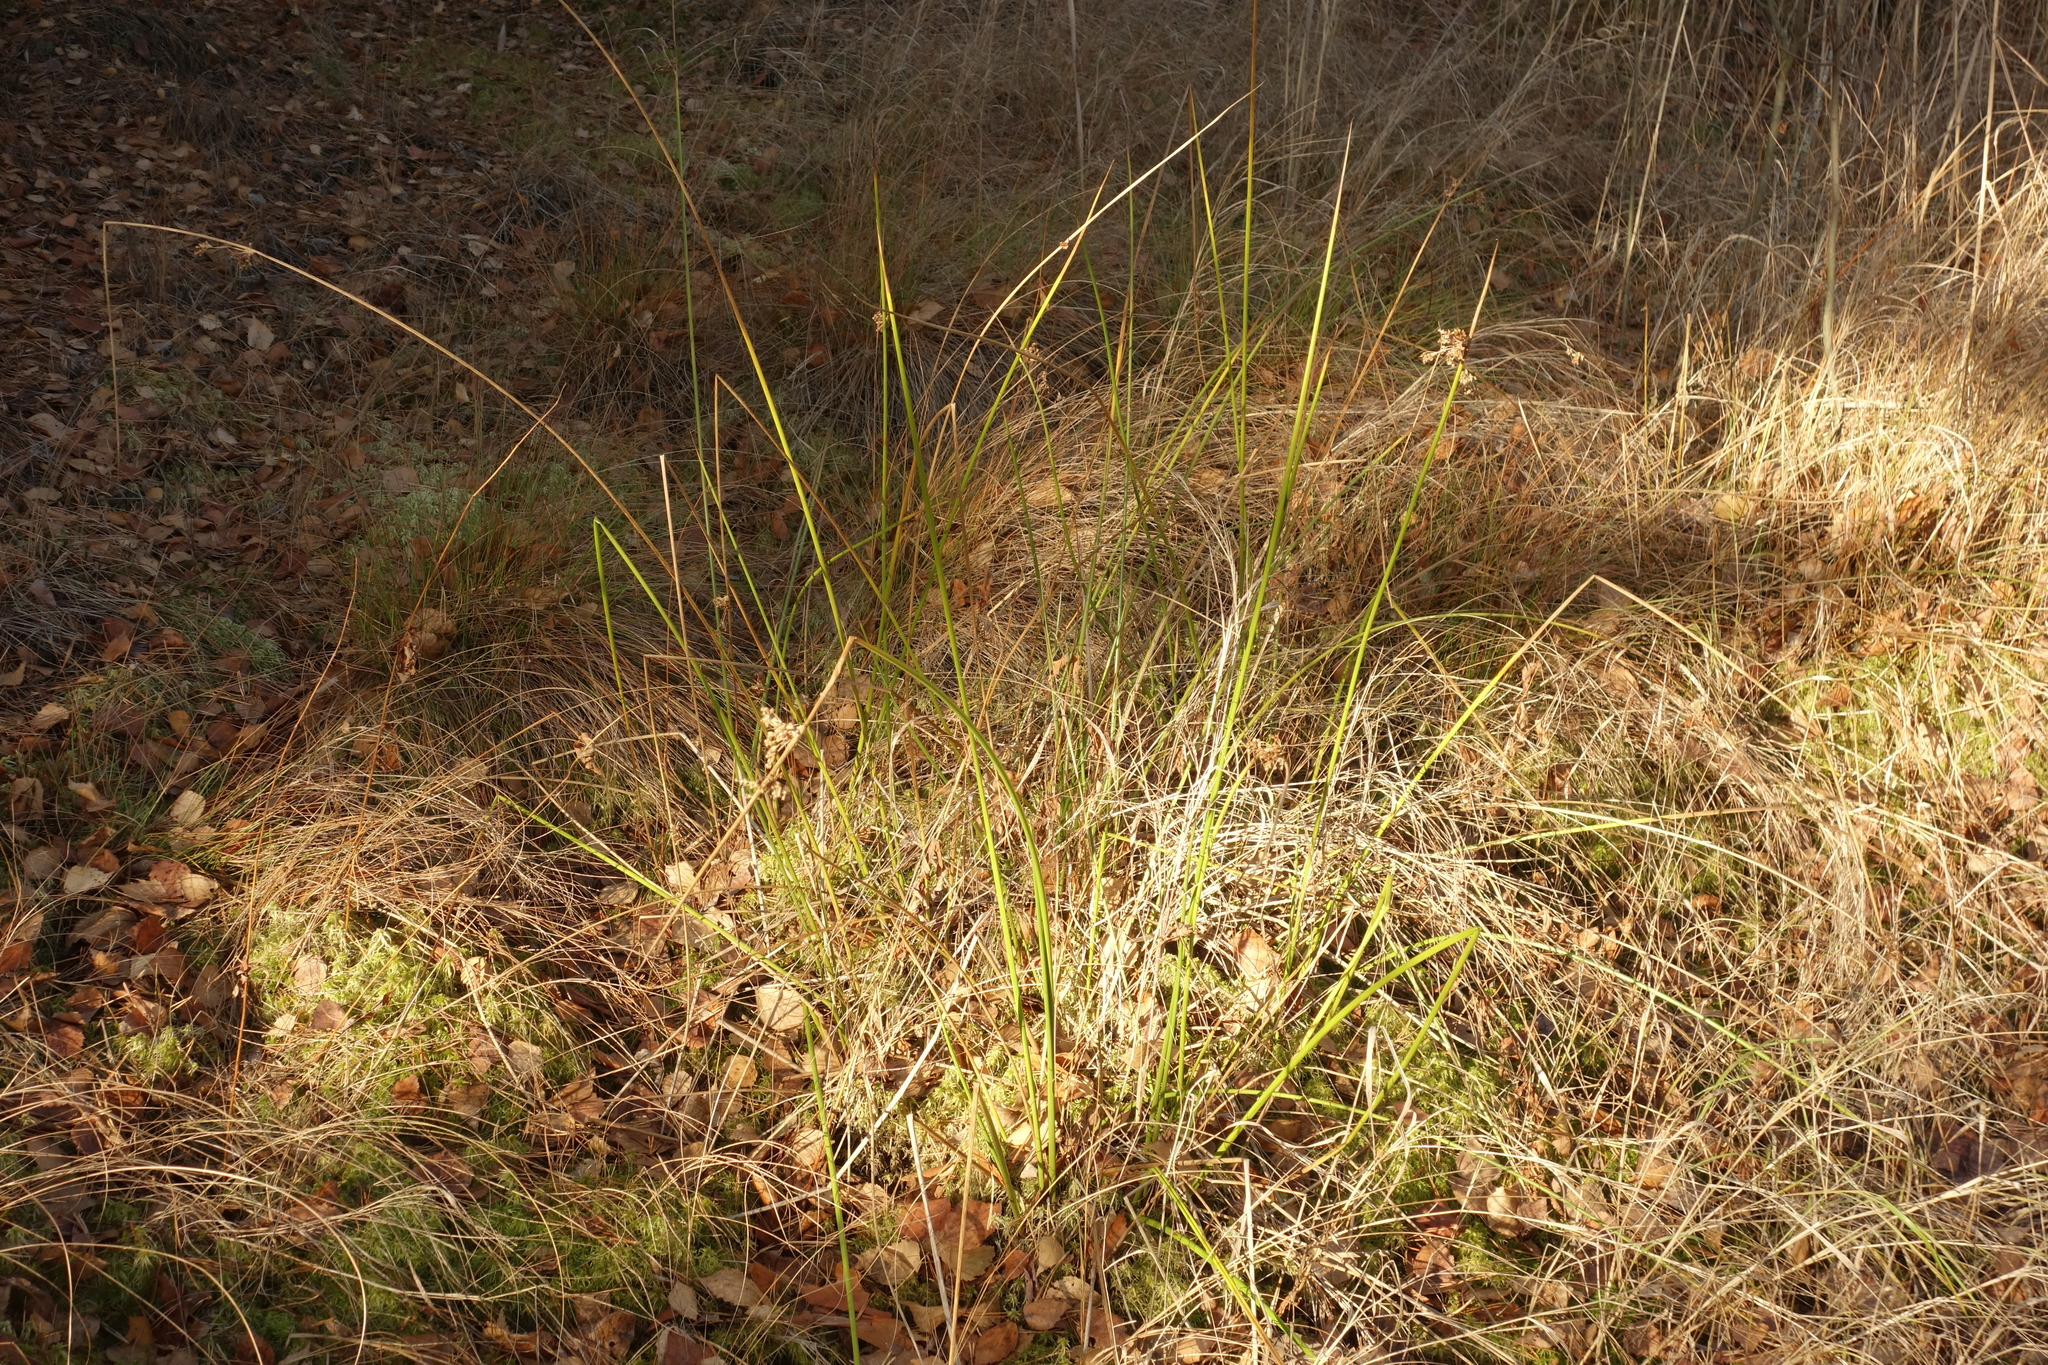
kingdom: Plantae
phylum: Tracheophyta
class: Liliopsida
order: Poales
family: Juncaceae
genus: Juncus
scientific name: Juncus effusus
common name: Soft rush
